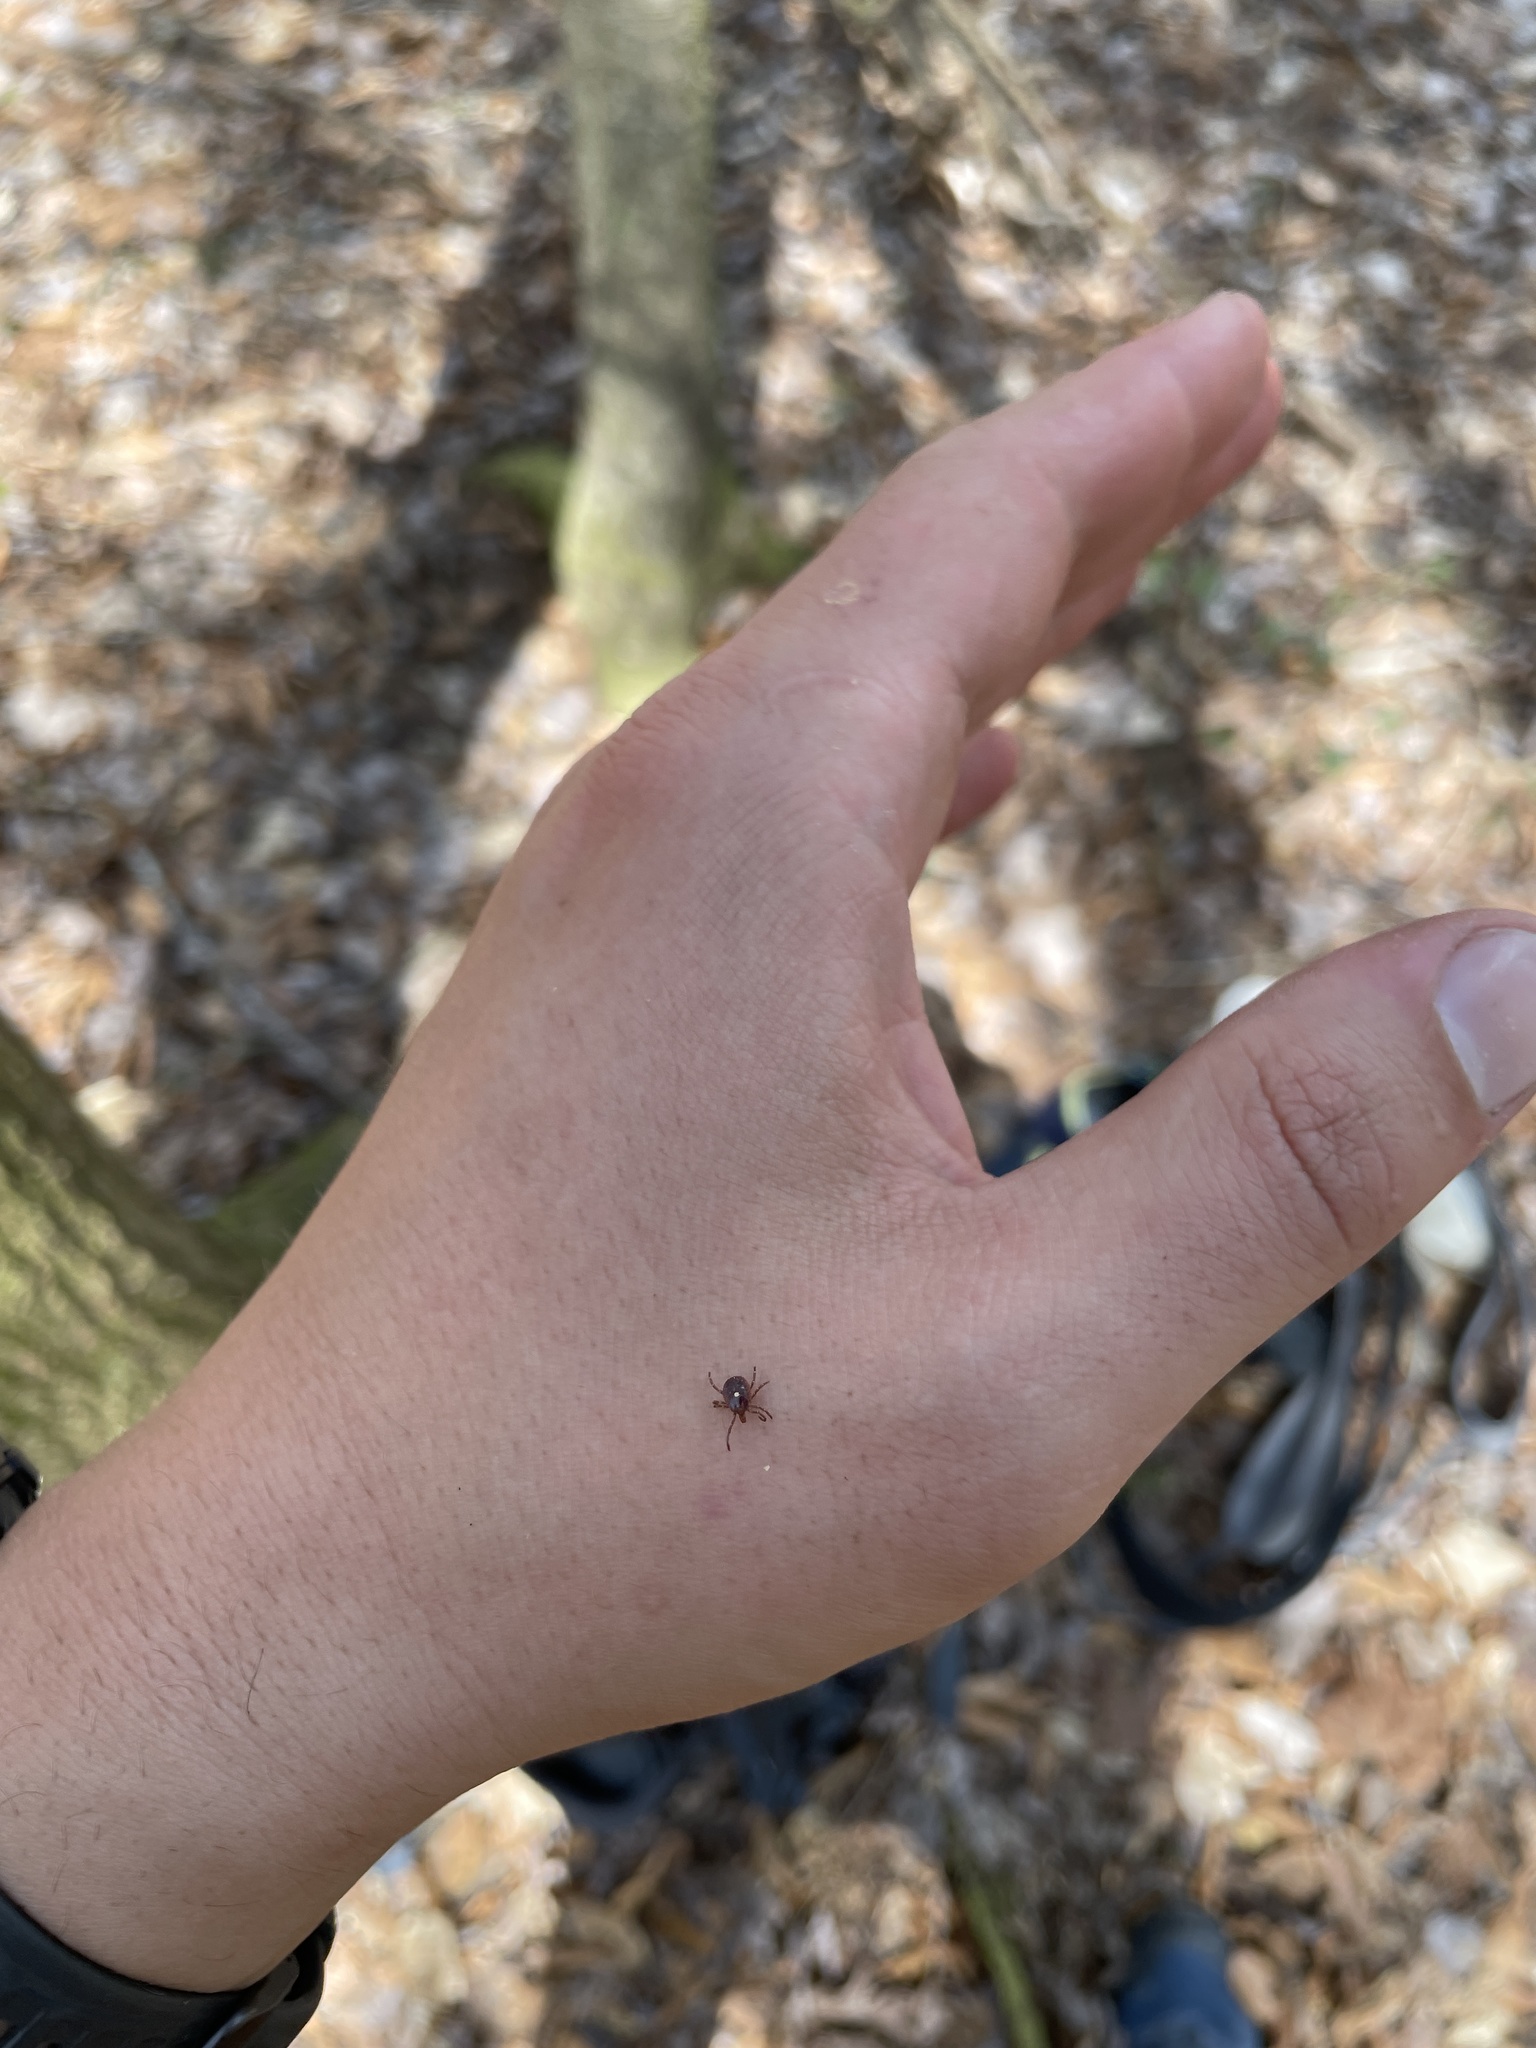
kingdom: Animalia
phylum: Arthropoda
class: Arachnida
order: Ixodida
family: Ixodidae
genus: Amblyomma
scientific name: Amblyomma americanum
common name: Lone star tick
